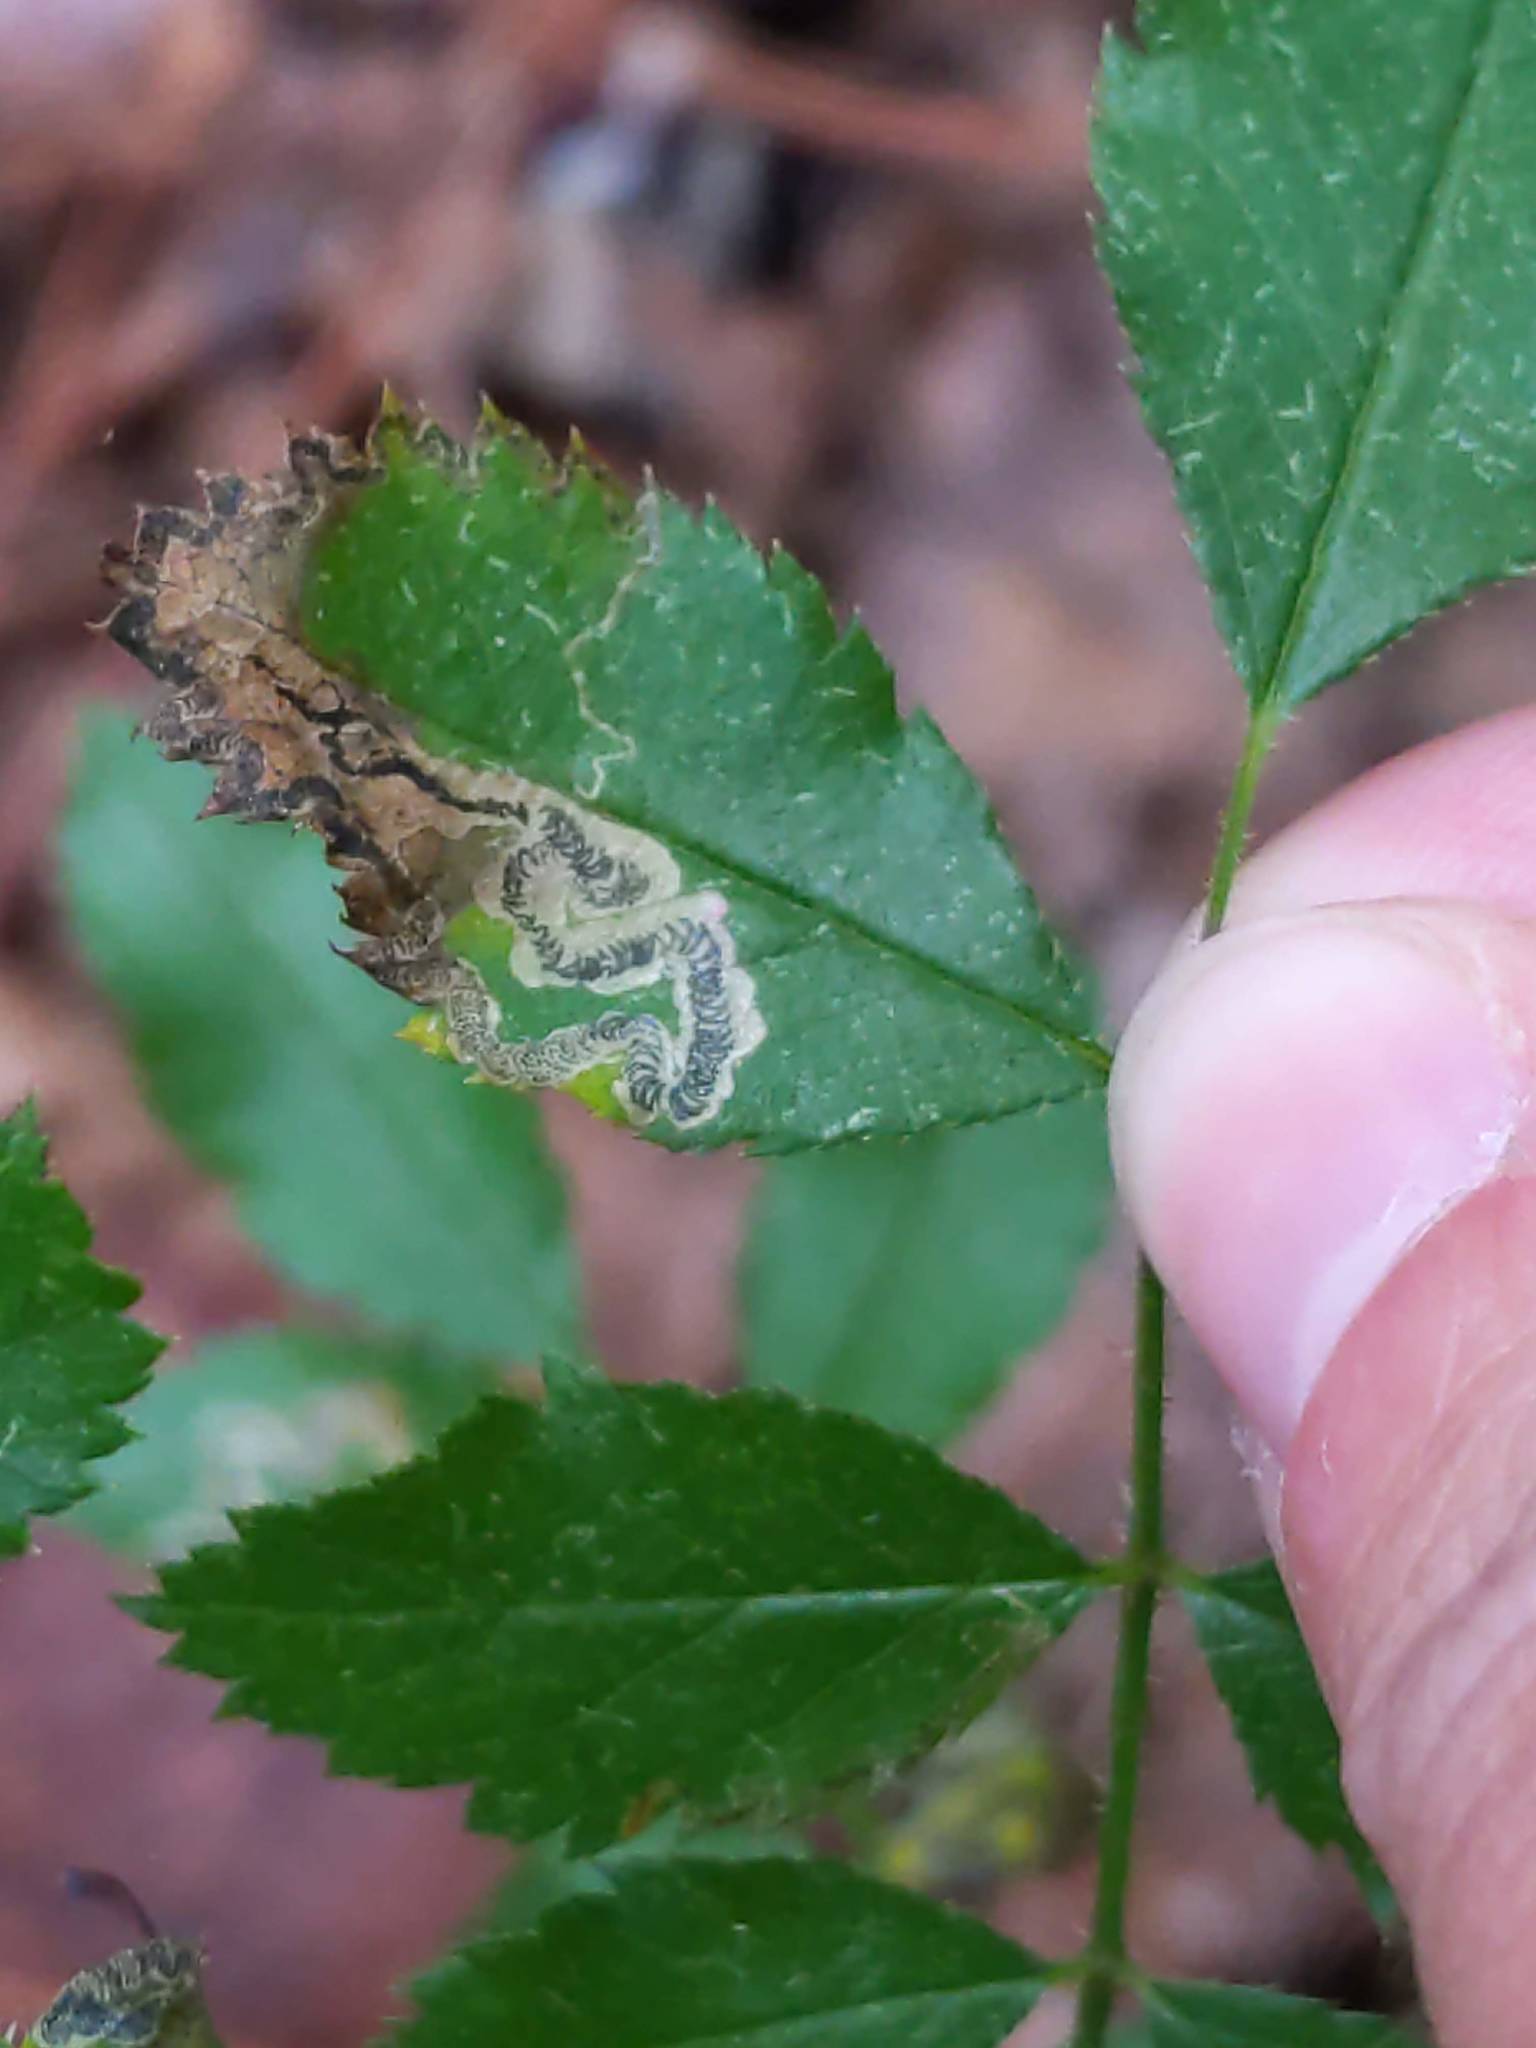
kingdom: Animalia
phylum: Arthropoda
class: Insecta
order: Lepidoptera
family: Nepticulidae
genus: Stigmella
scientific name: Stigmella rosaefoliella
